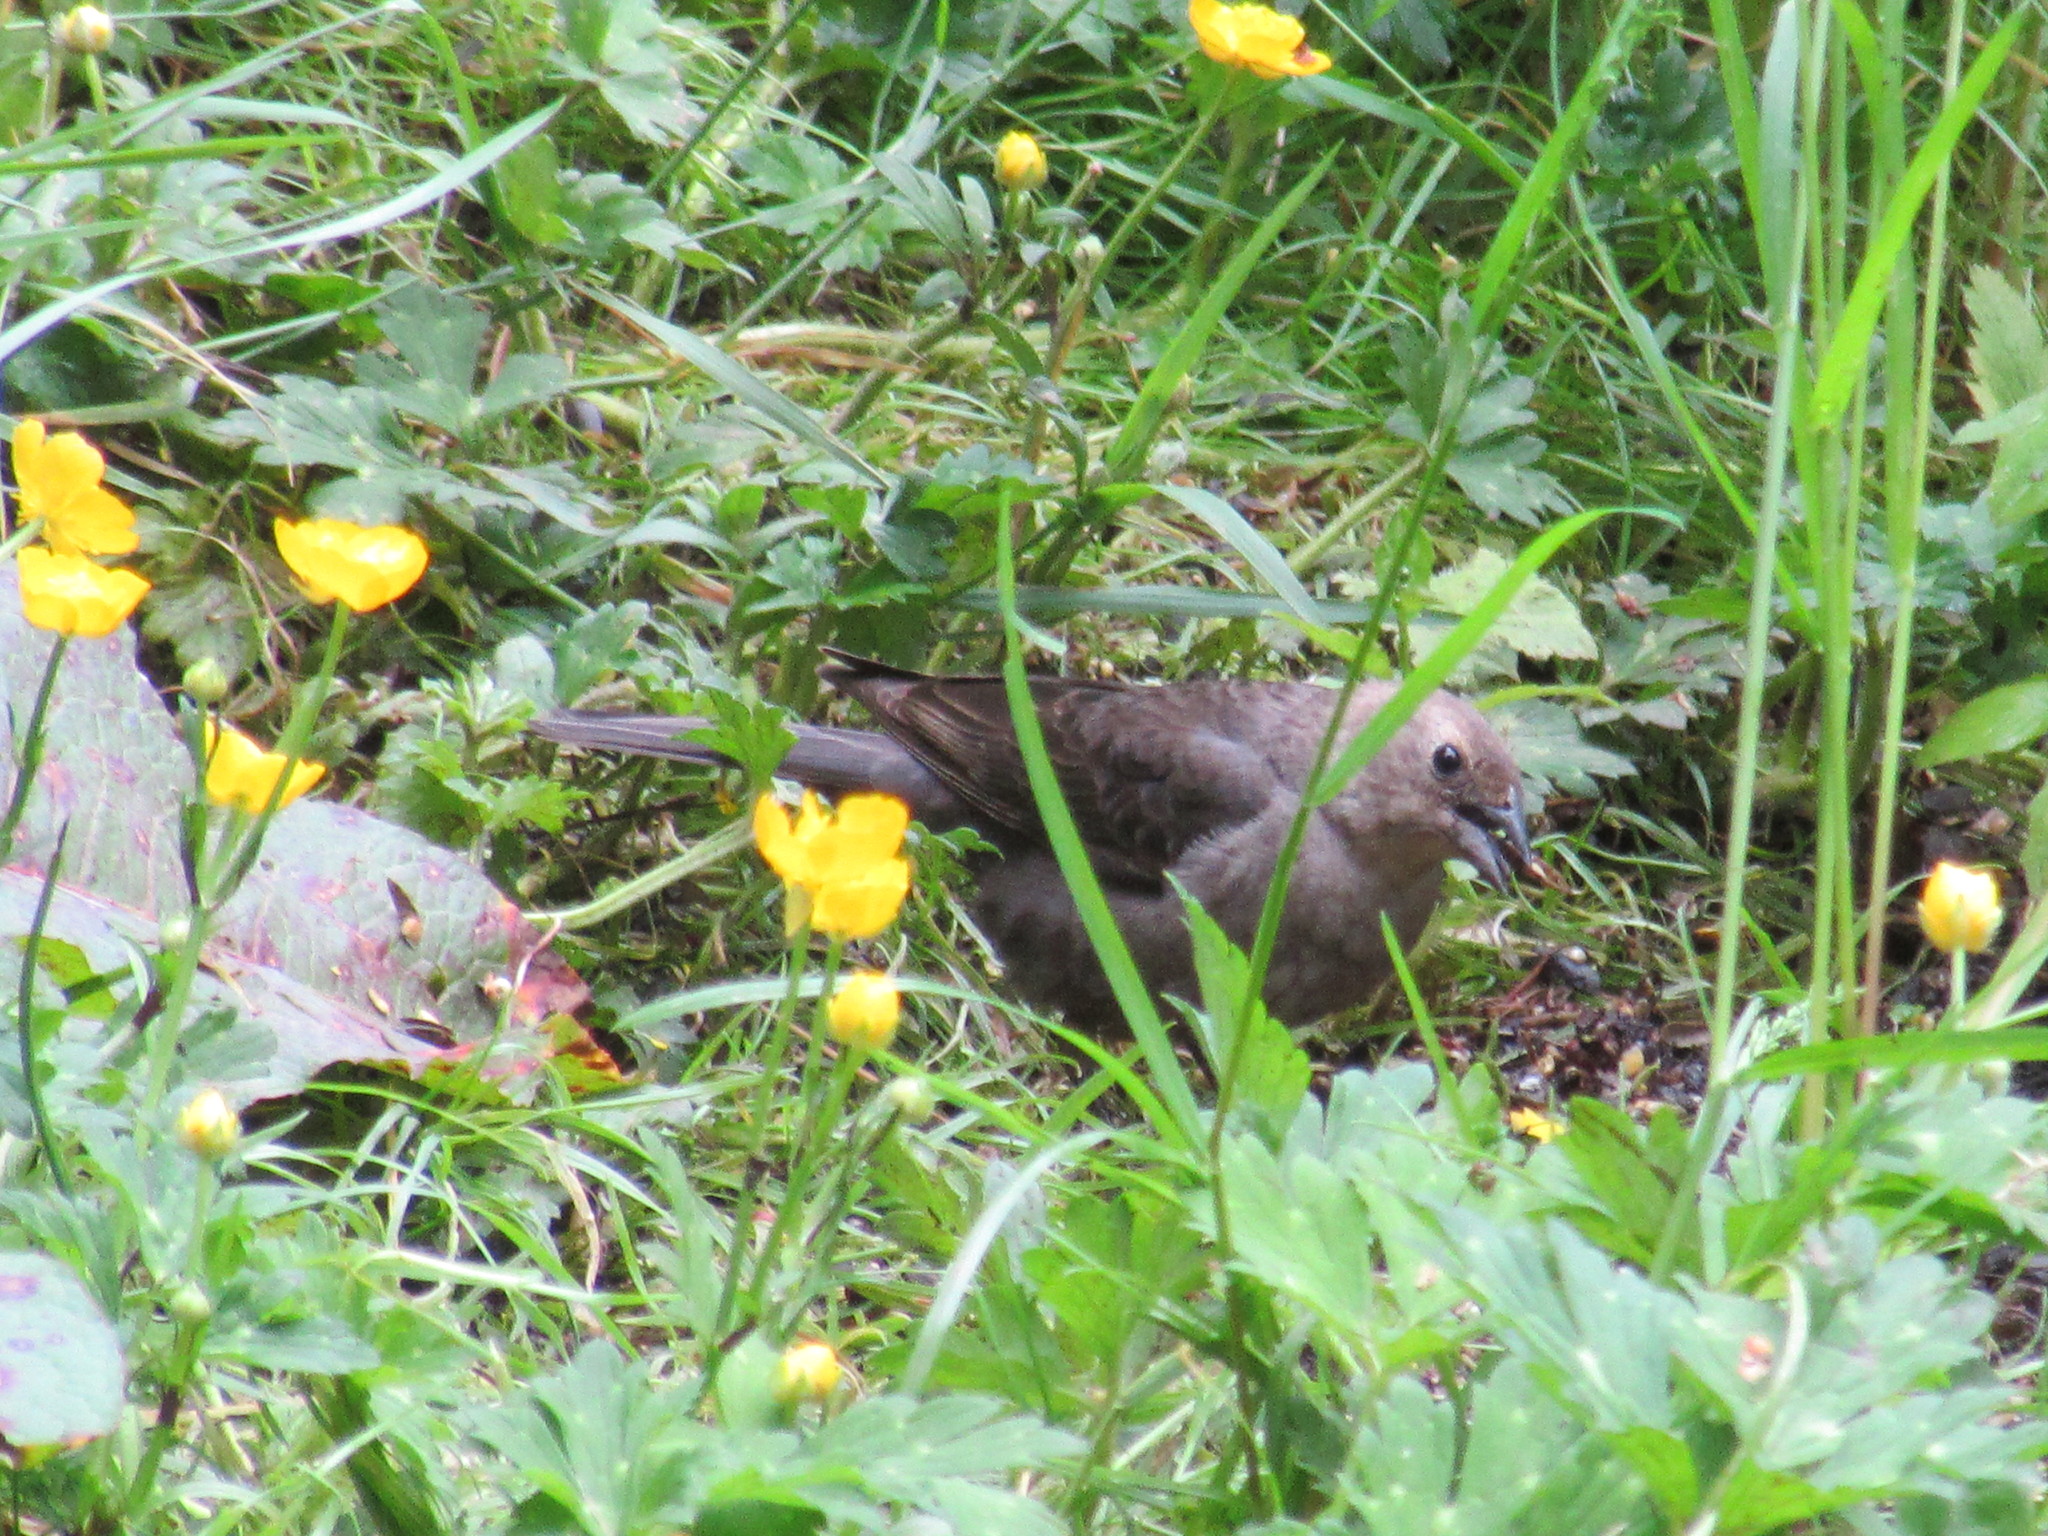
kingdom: Animalia
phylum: Chordata
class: Aves
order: Passeriformes
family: Icteridae
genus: Molothrus
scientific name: Molothrus ater
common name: Brown-headed cowbird
